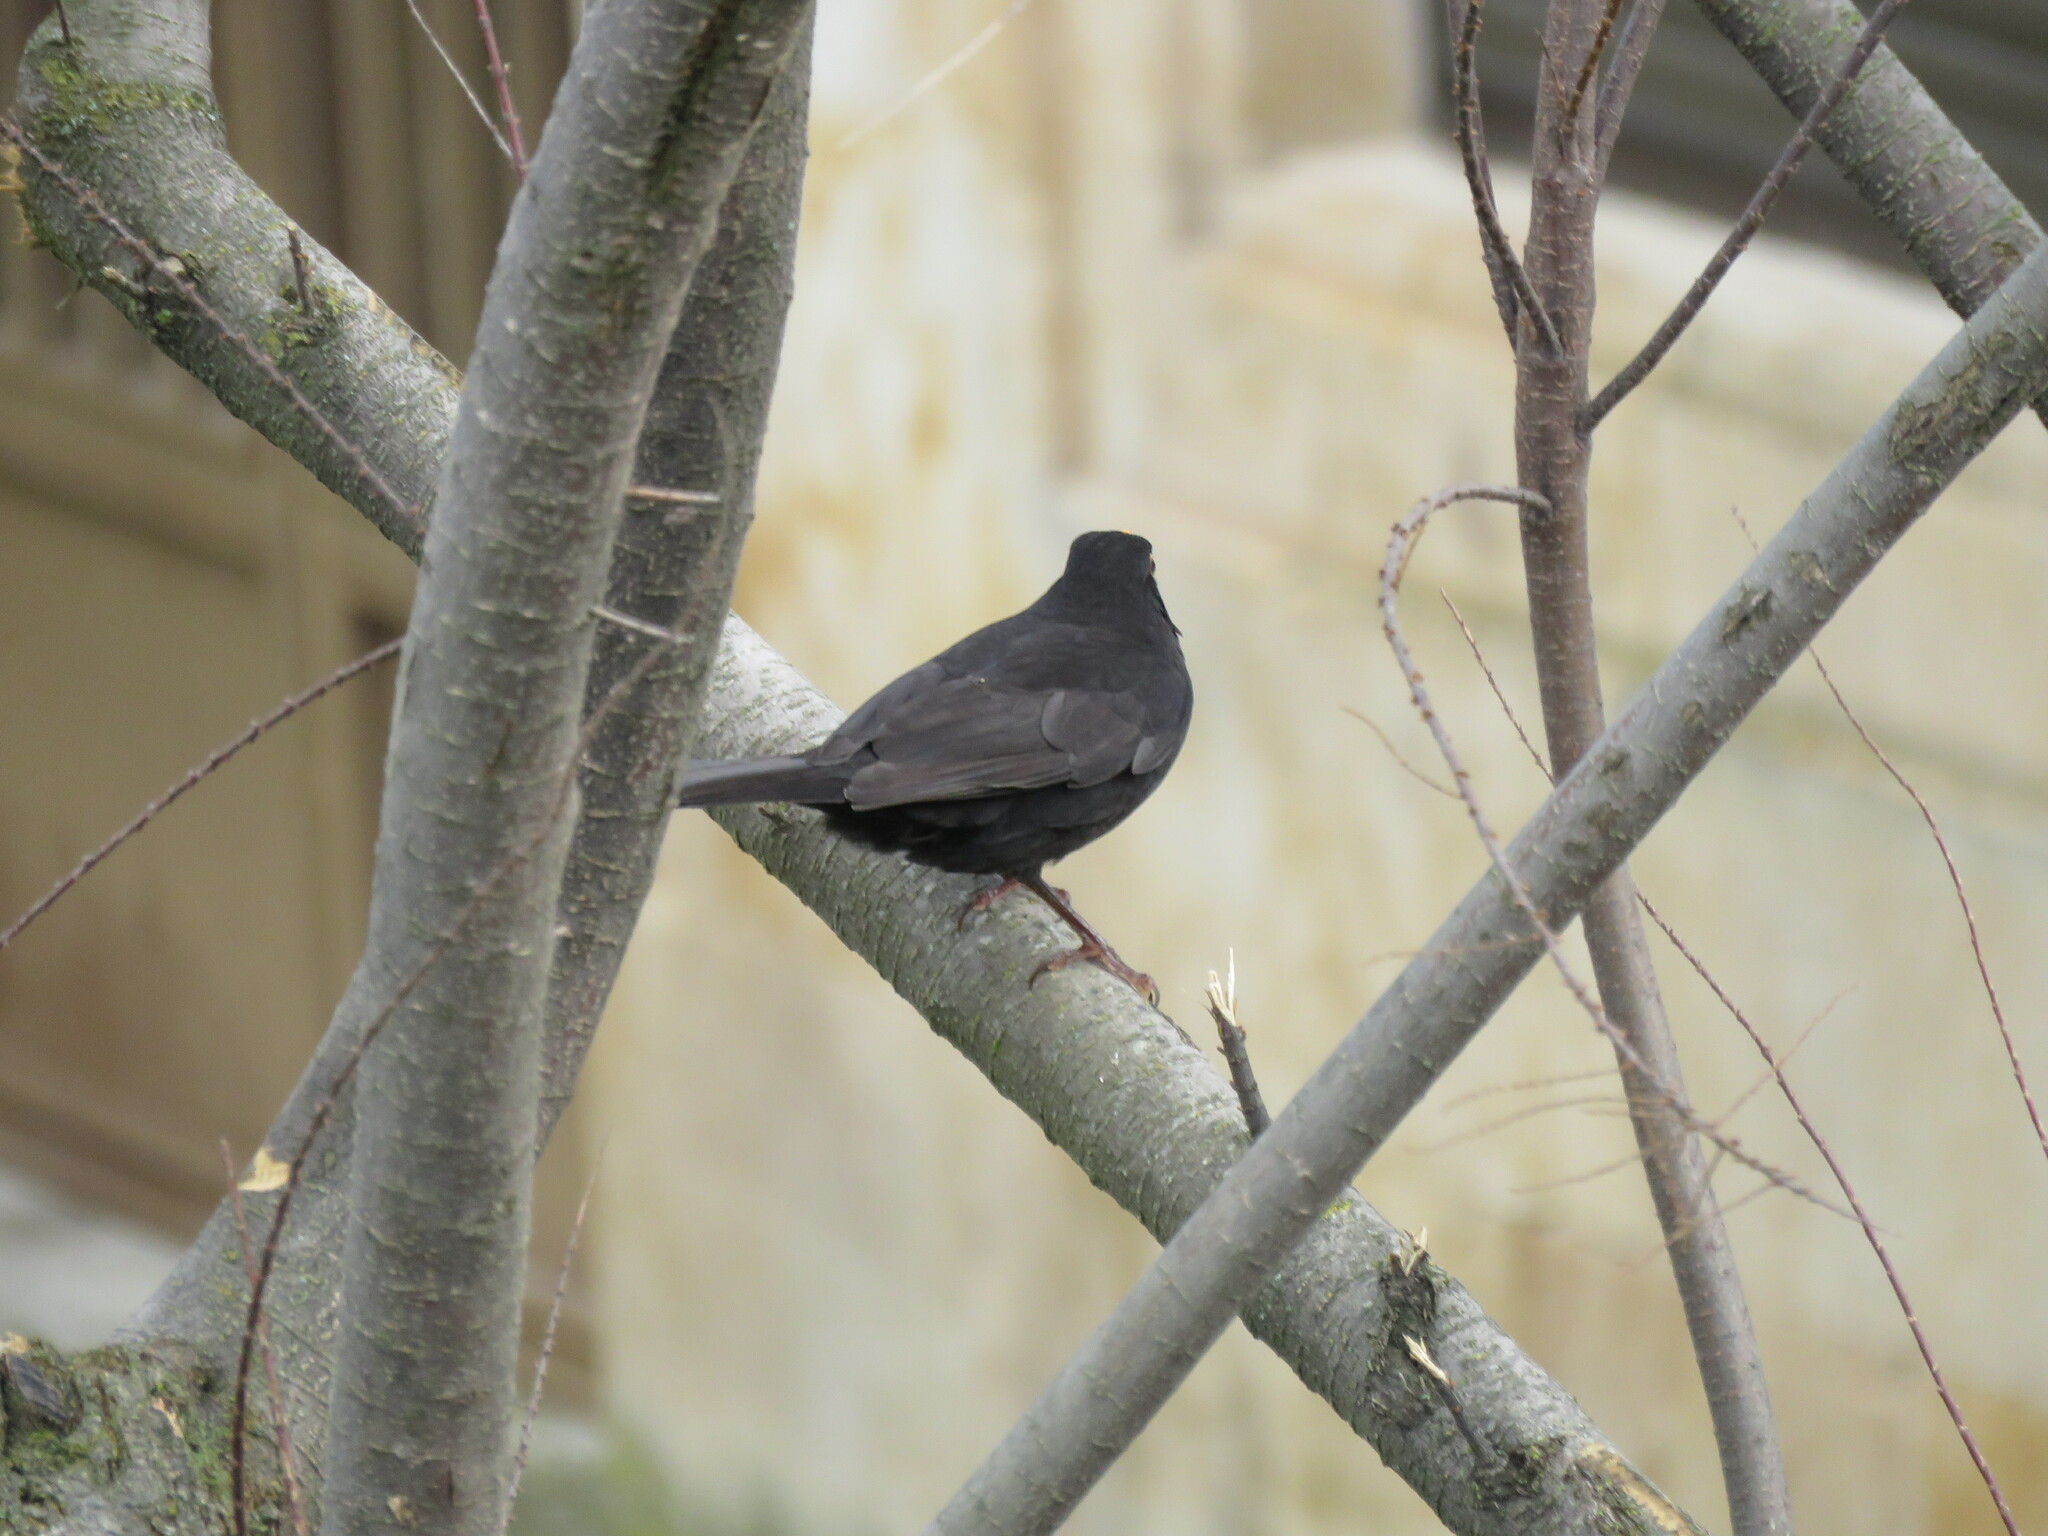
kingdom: Animalia
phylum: Chordata
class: Aves
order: Passeriformes
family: Turdidae
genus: Turdus
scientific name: Turdus merula
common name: Common blackbird
